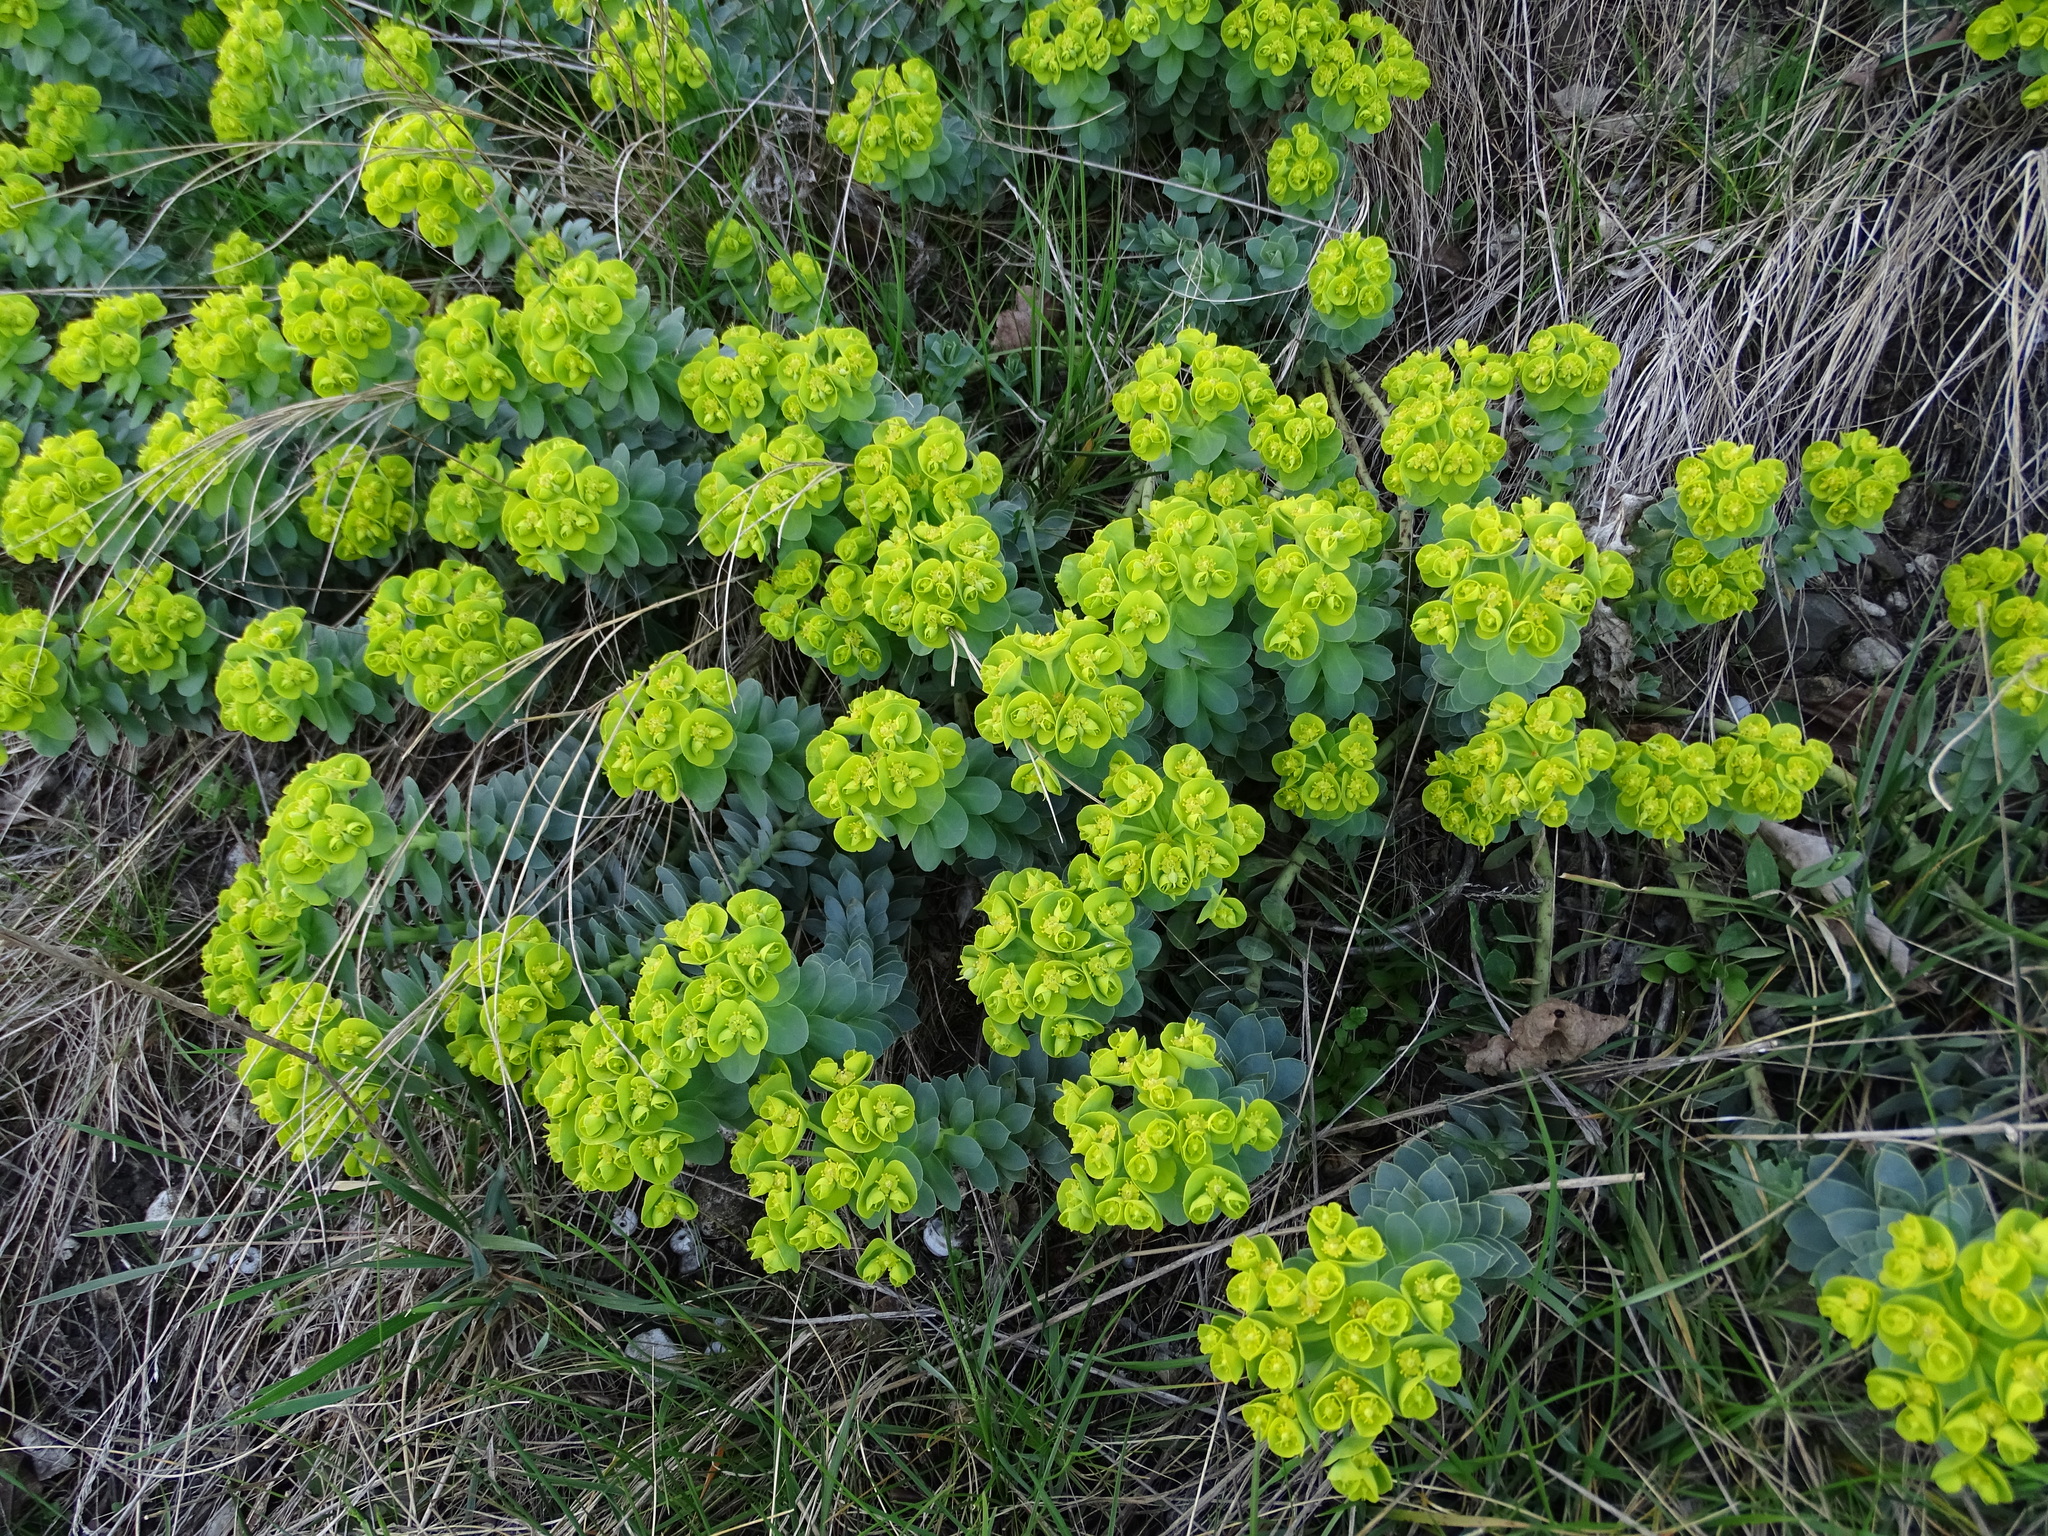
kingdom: Plantae
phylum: Tracheophyta
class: Magnoliopsida
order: Malpighiales
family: Euphorbiaceae
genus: Euphorbia
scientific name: Euphorbia myrsinites
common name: Myrtle spurge
